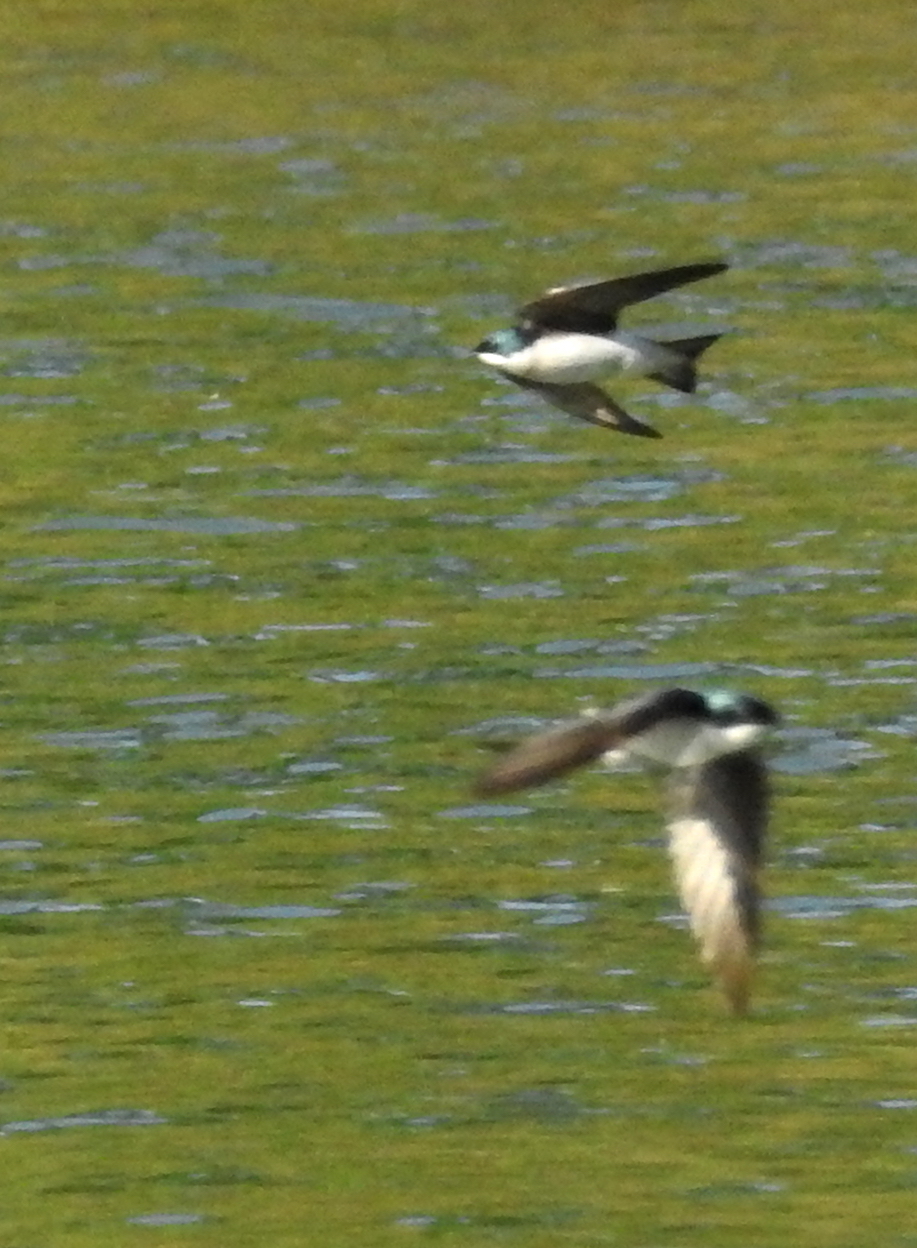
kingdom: Animalia
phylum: Chordata
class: Aves
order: Passeriformes
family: Hirundinidae
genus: Tachycineta
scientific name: Tachycineta bicolor
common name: Tree swallow
